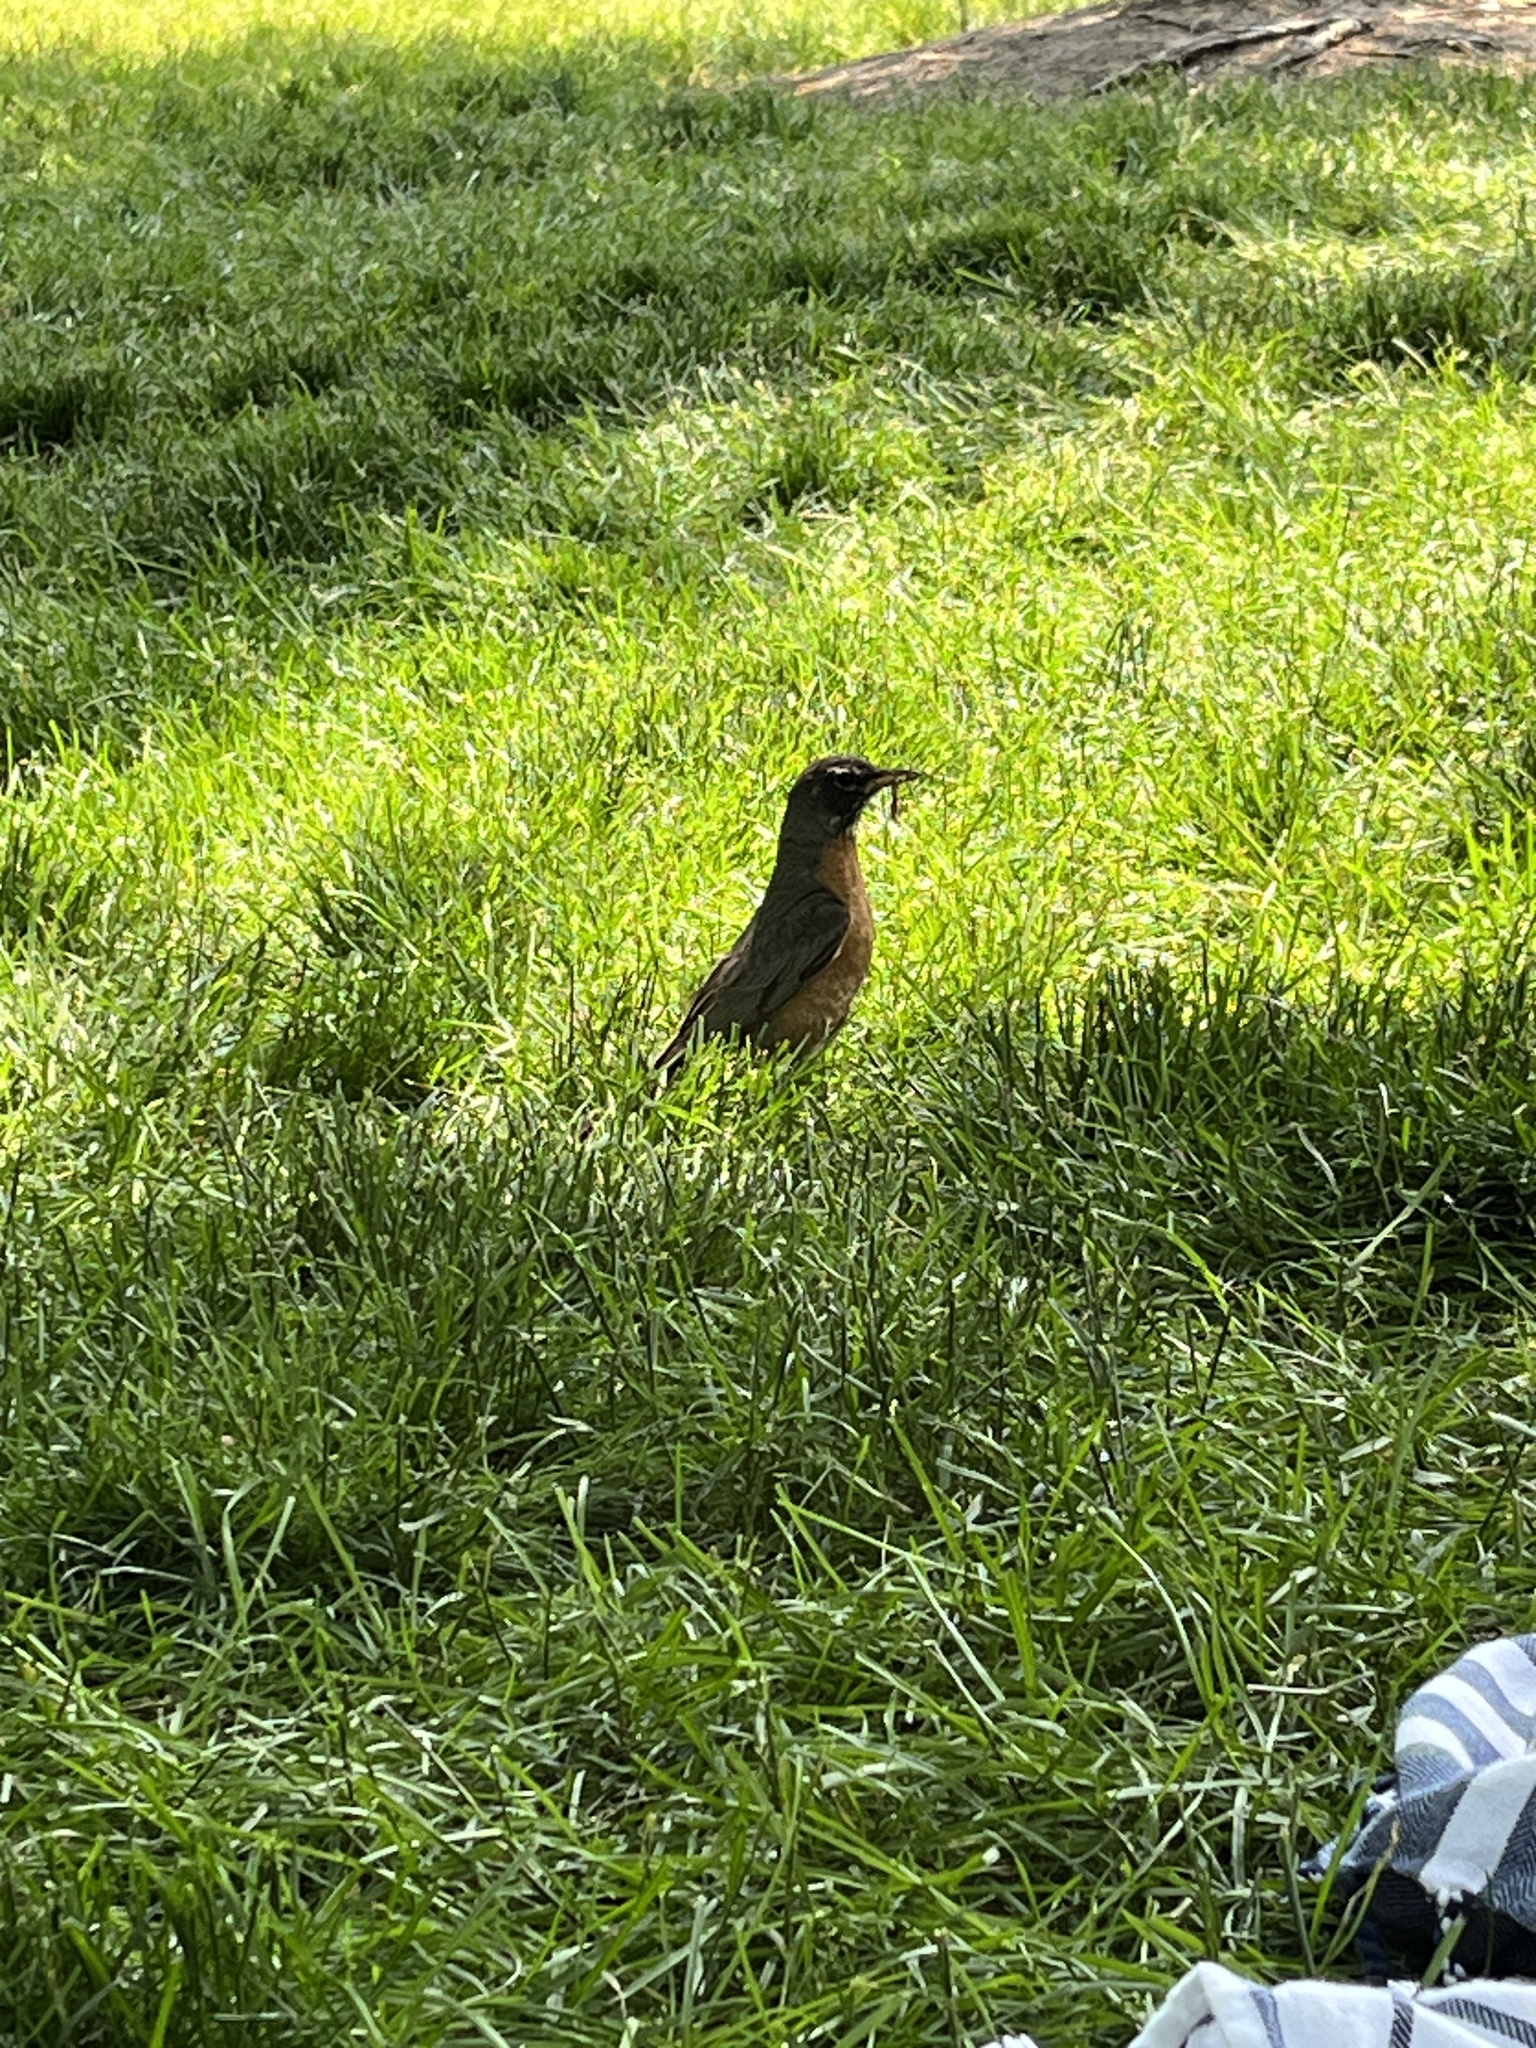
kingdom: Animalia
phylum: Chordata
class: Aves
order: Passeriformes
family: Turdidae
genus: Turdus
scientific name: Turdus migratorius
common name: American robin
